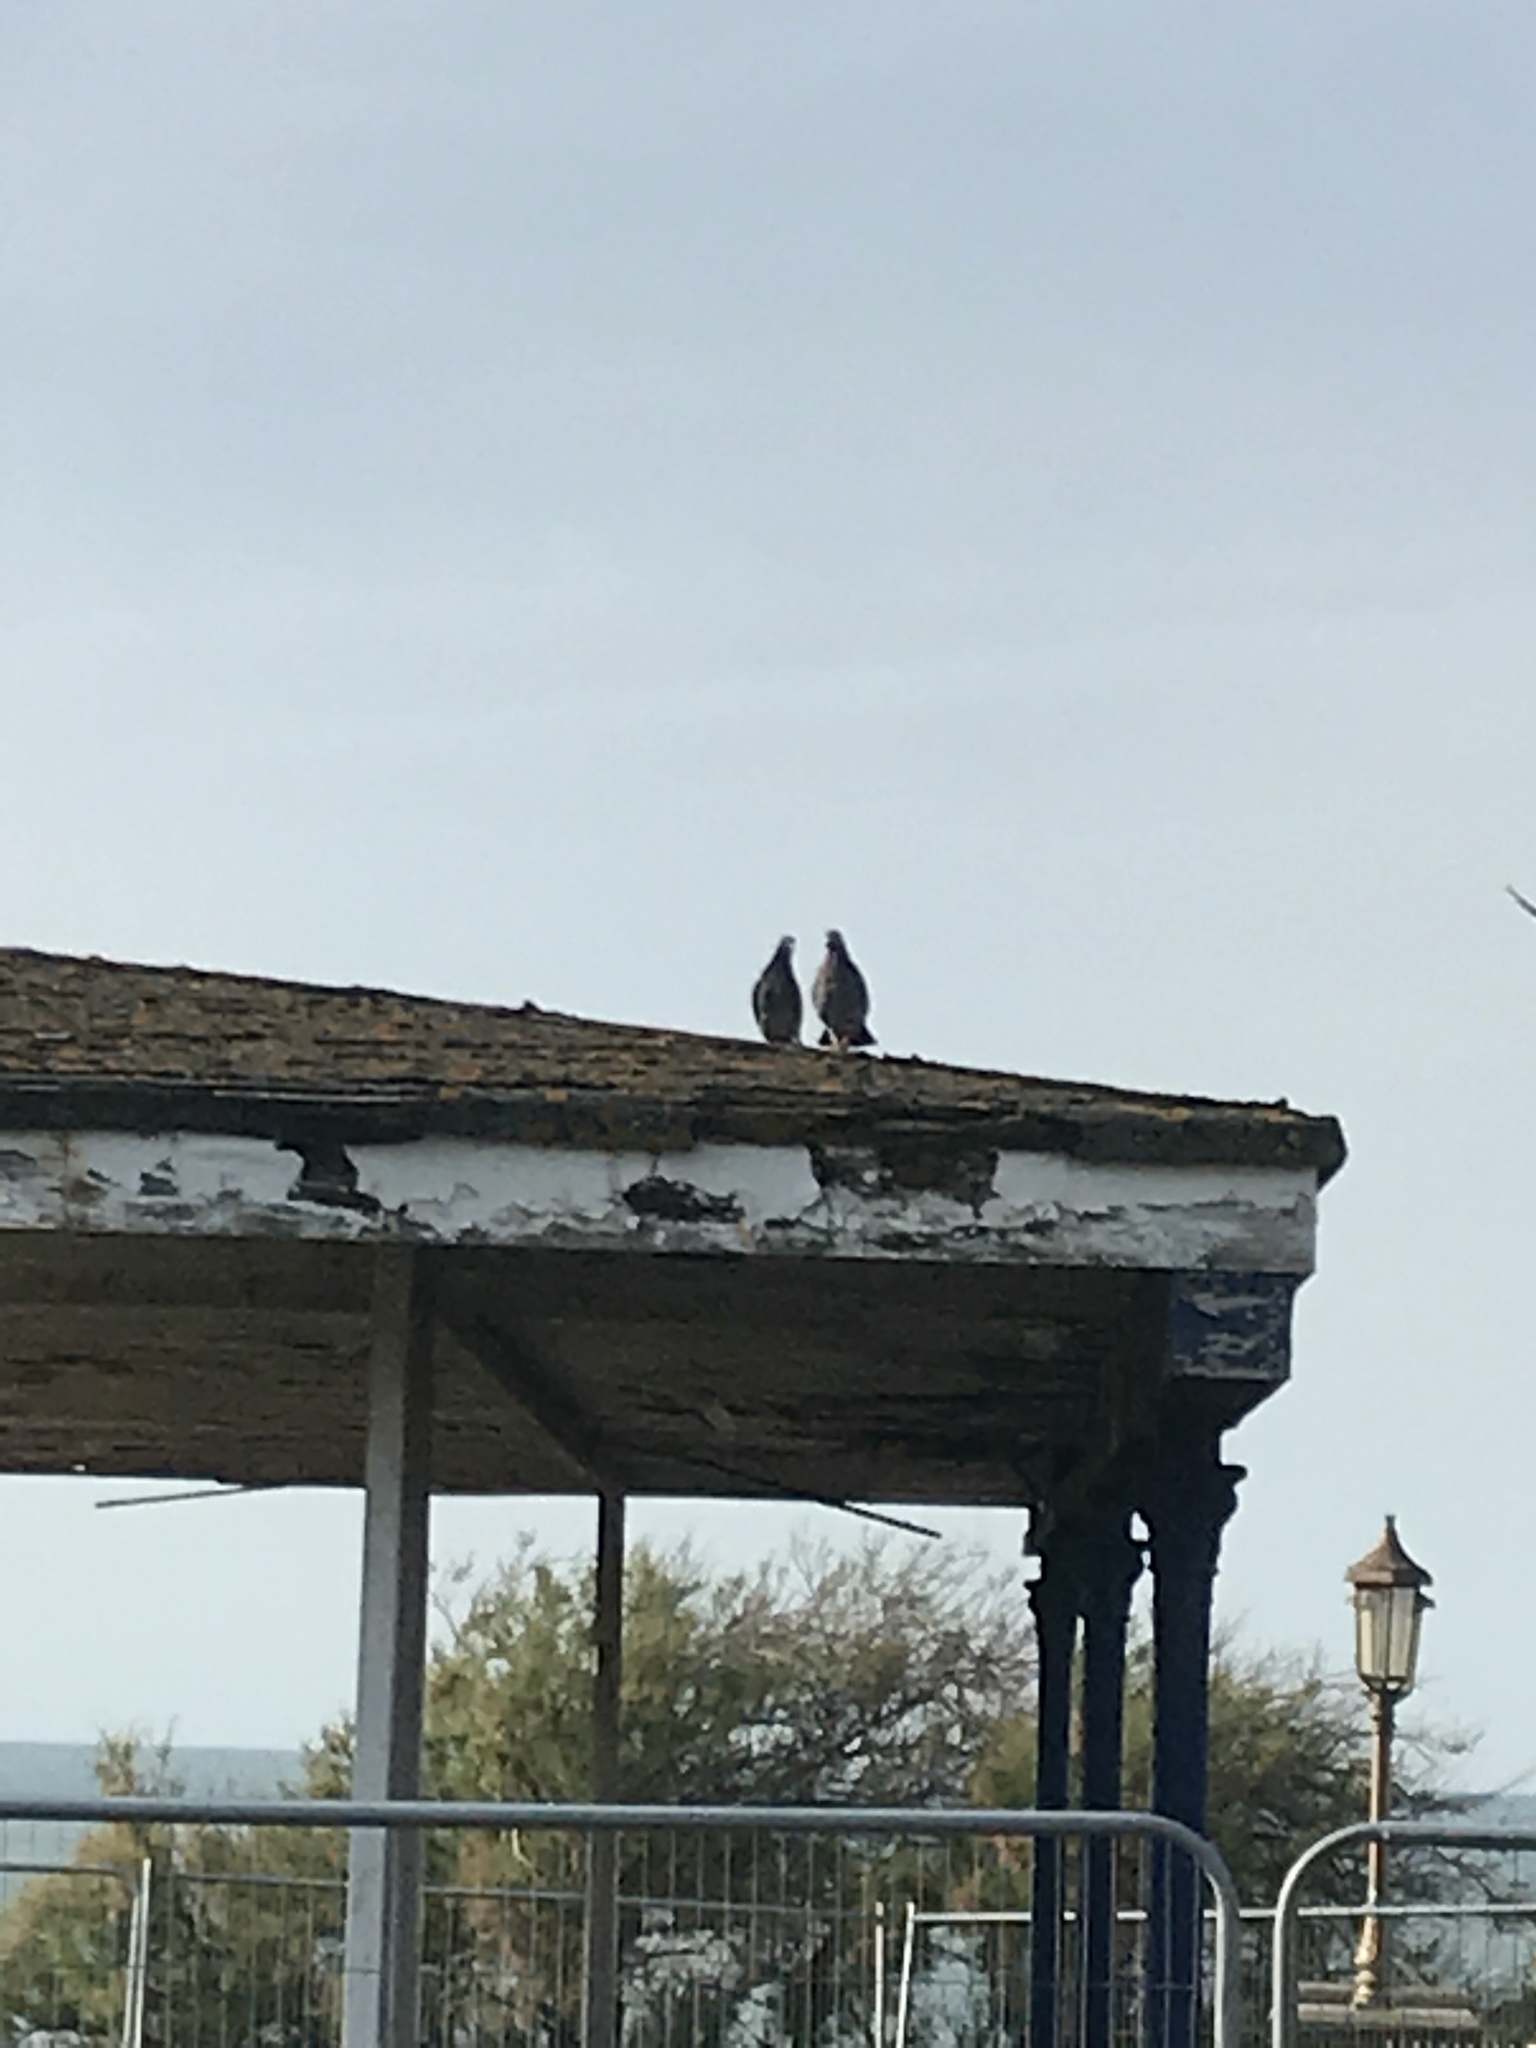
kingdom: Animalia
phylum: Chordata
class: Aves
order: Columbiformes
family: Columbidae
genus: Columba
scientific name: Columba livia
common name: Rock pigeon
